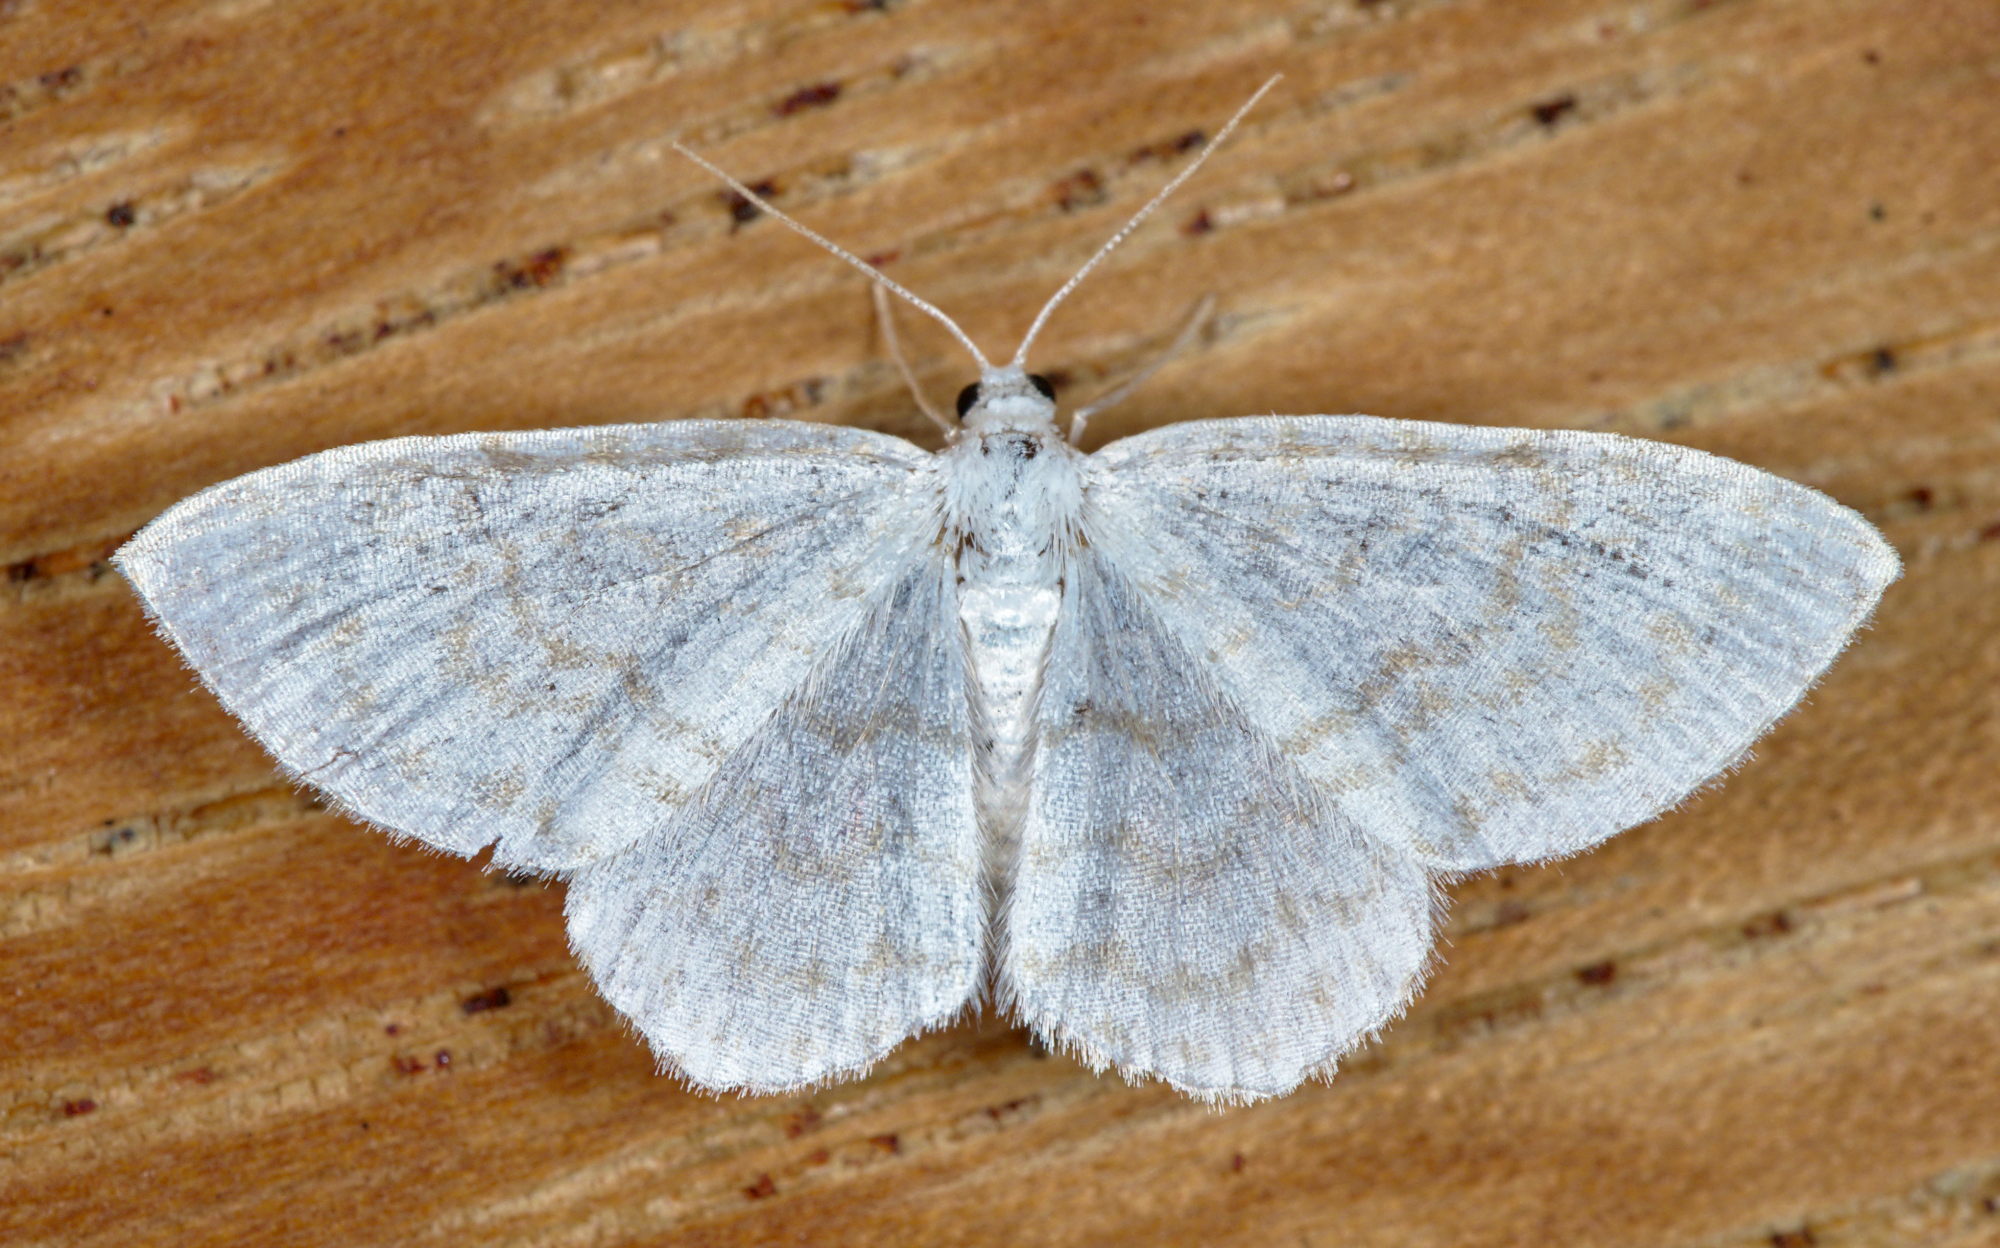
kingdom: Animalia
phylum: Arthropoda
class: Insecta
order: Lepidoptera
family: Geometridae
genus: Asthena
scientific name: Asthena albulata
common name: Small white wave
